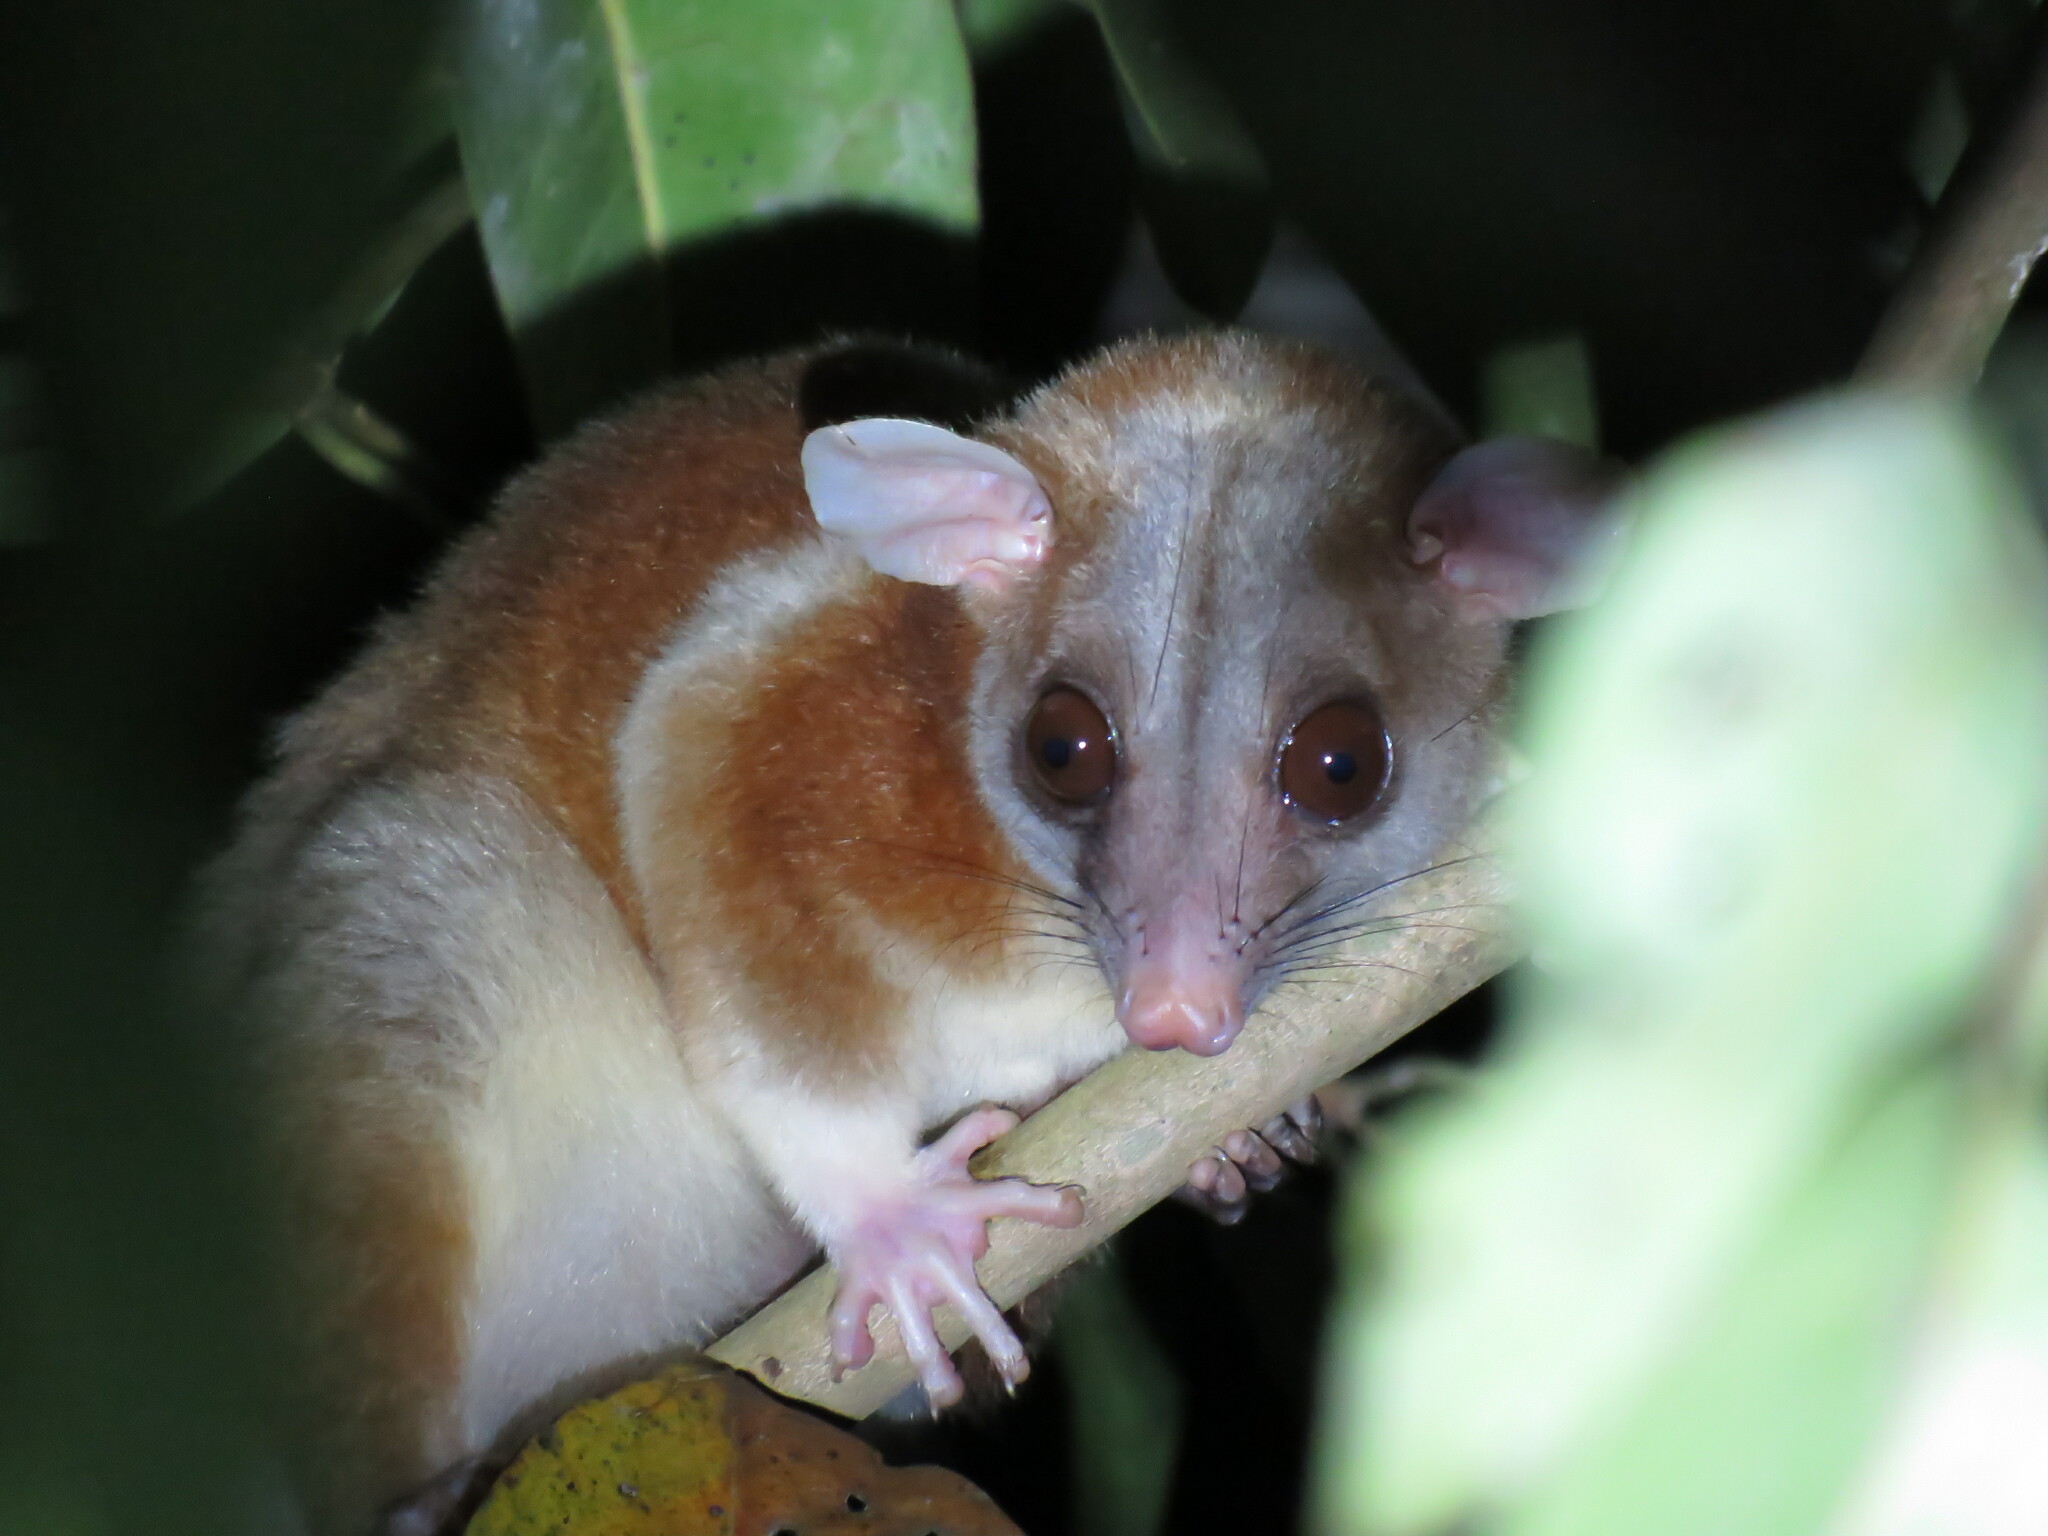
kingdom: Animalia
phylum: Chordata
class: Mammalia
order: Didelphimorphia
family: Didelphidae
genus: Caluromys
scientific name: Caluromys derbianus
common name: Derby's woolly opossum
